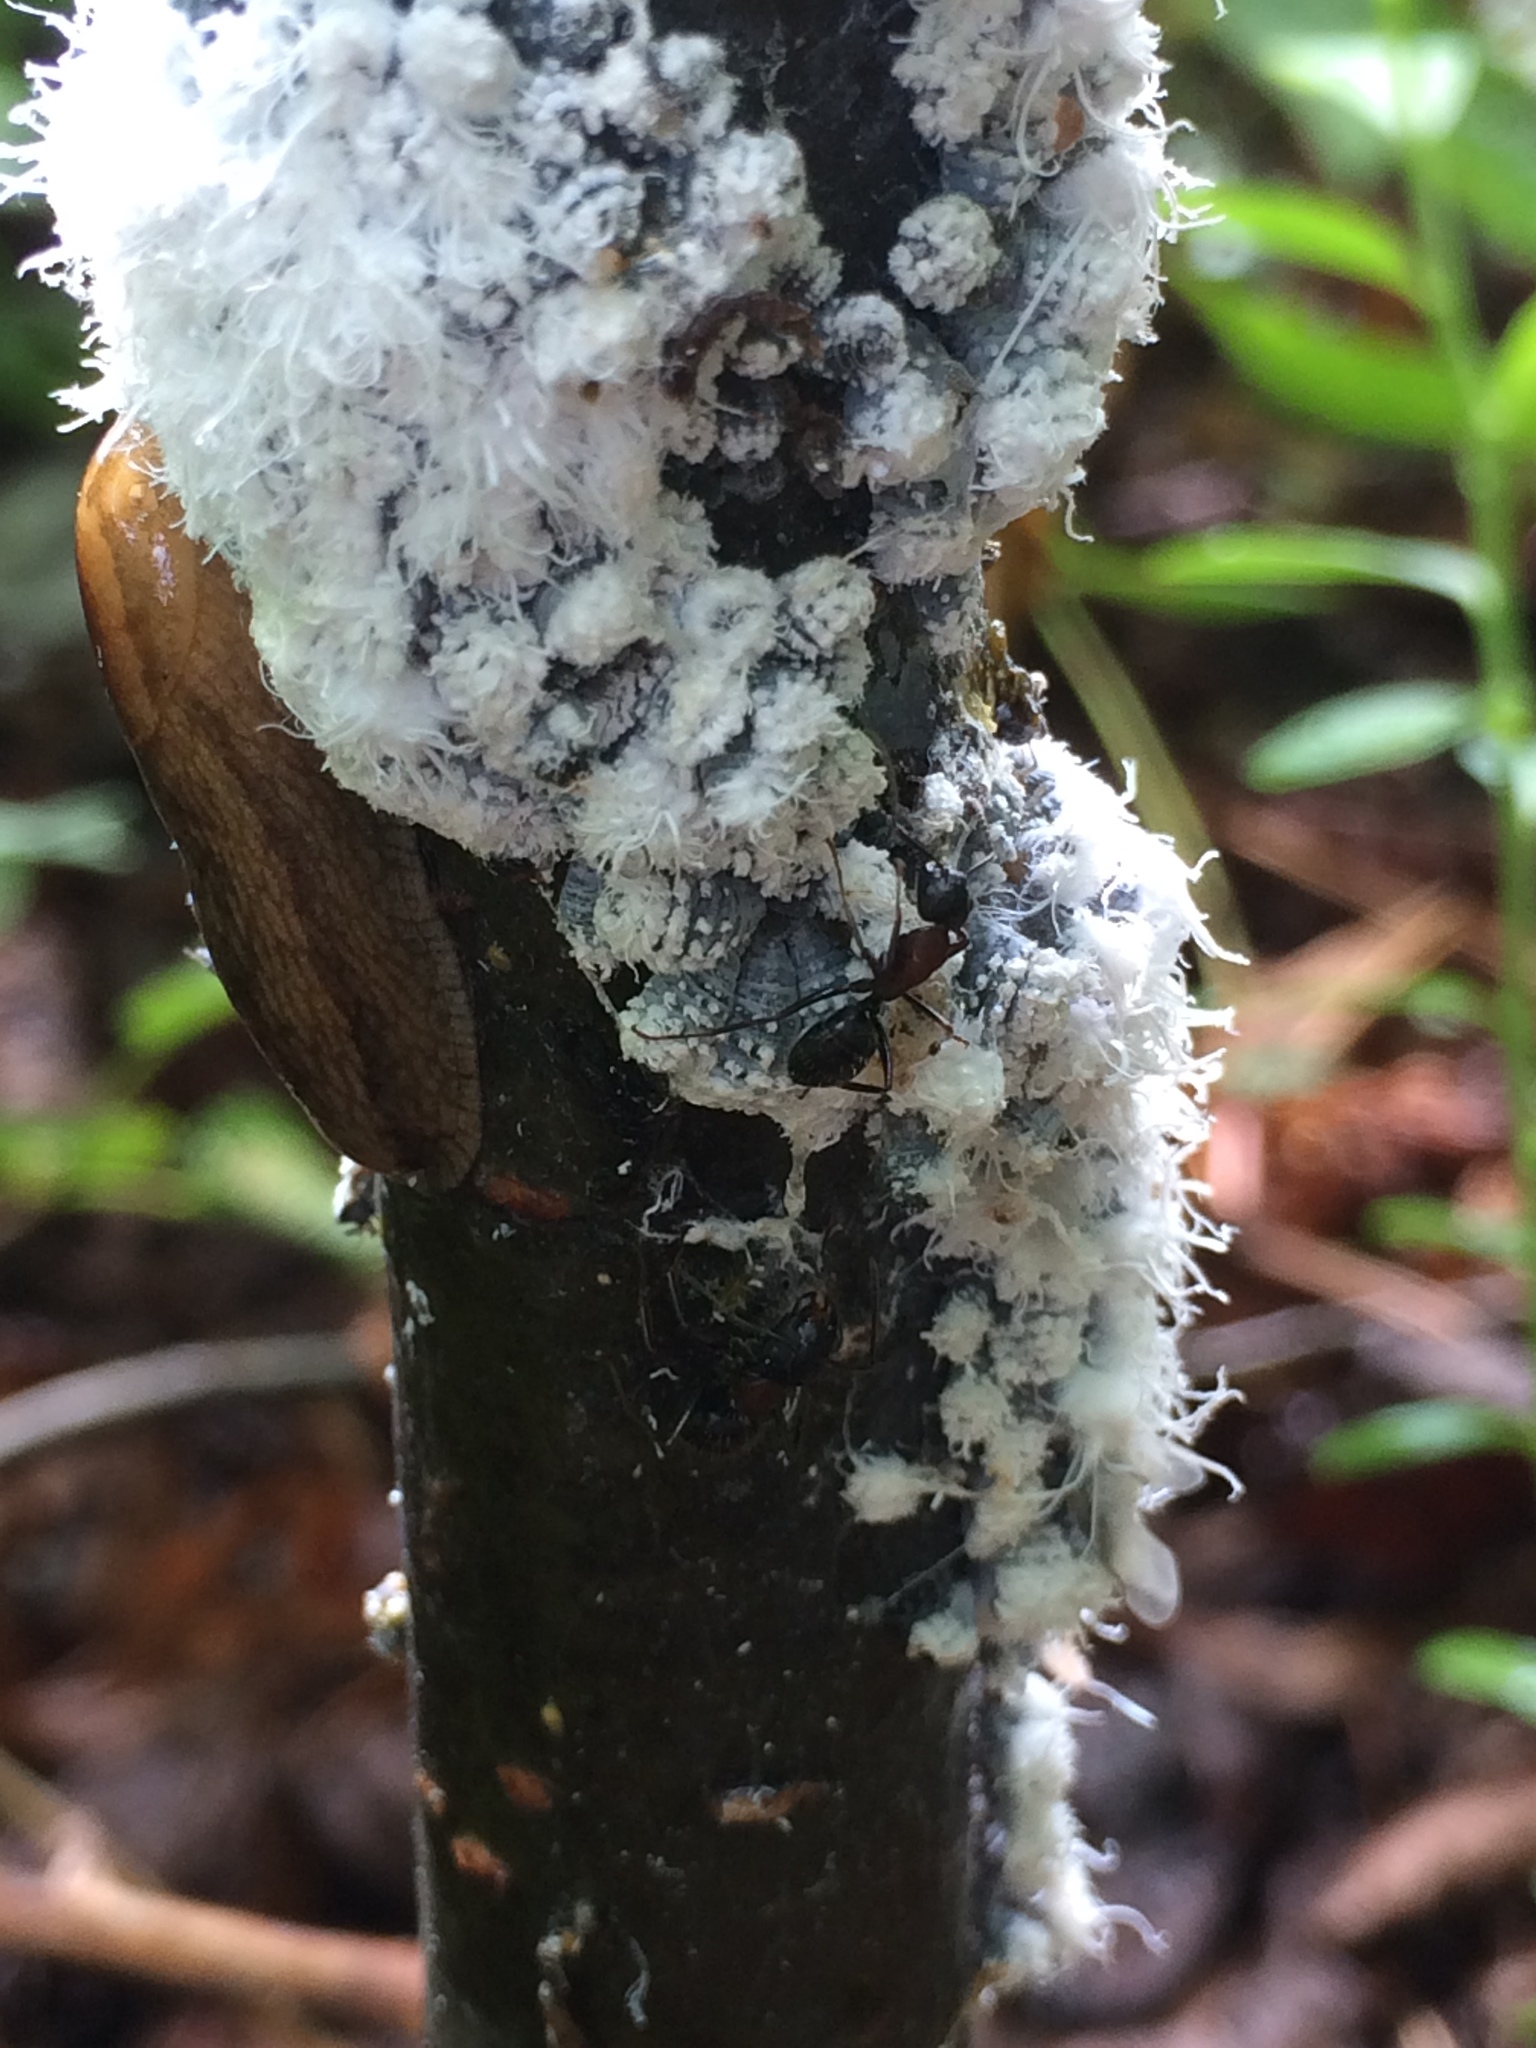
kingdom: Animalia
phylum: Arthropoda
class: Insecta
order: Hemiptera
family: Aphididae
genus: Prociphilus
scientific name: Prociphilus tessellatus
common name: Woolly alder aphid
